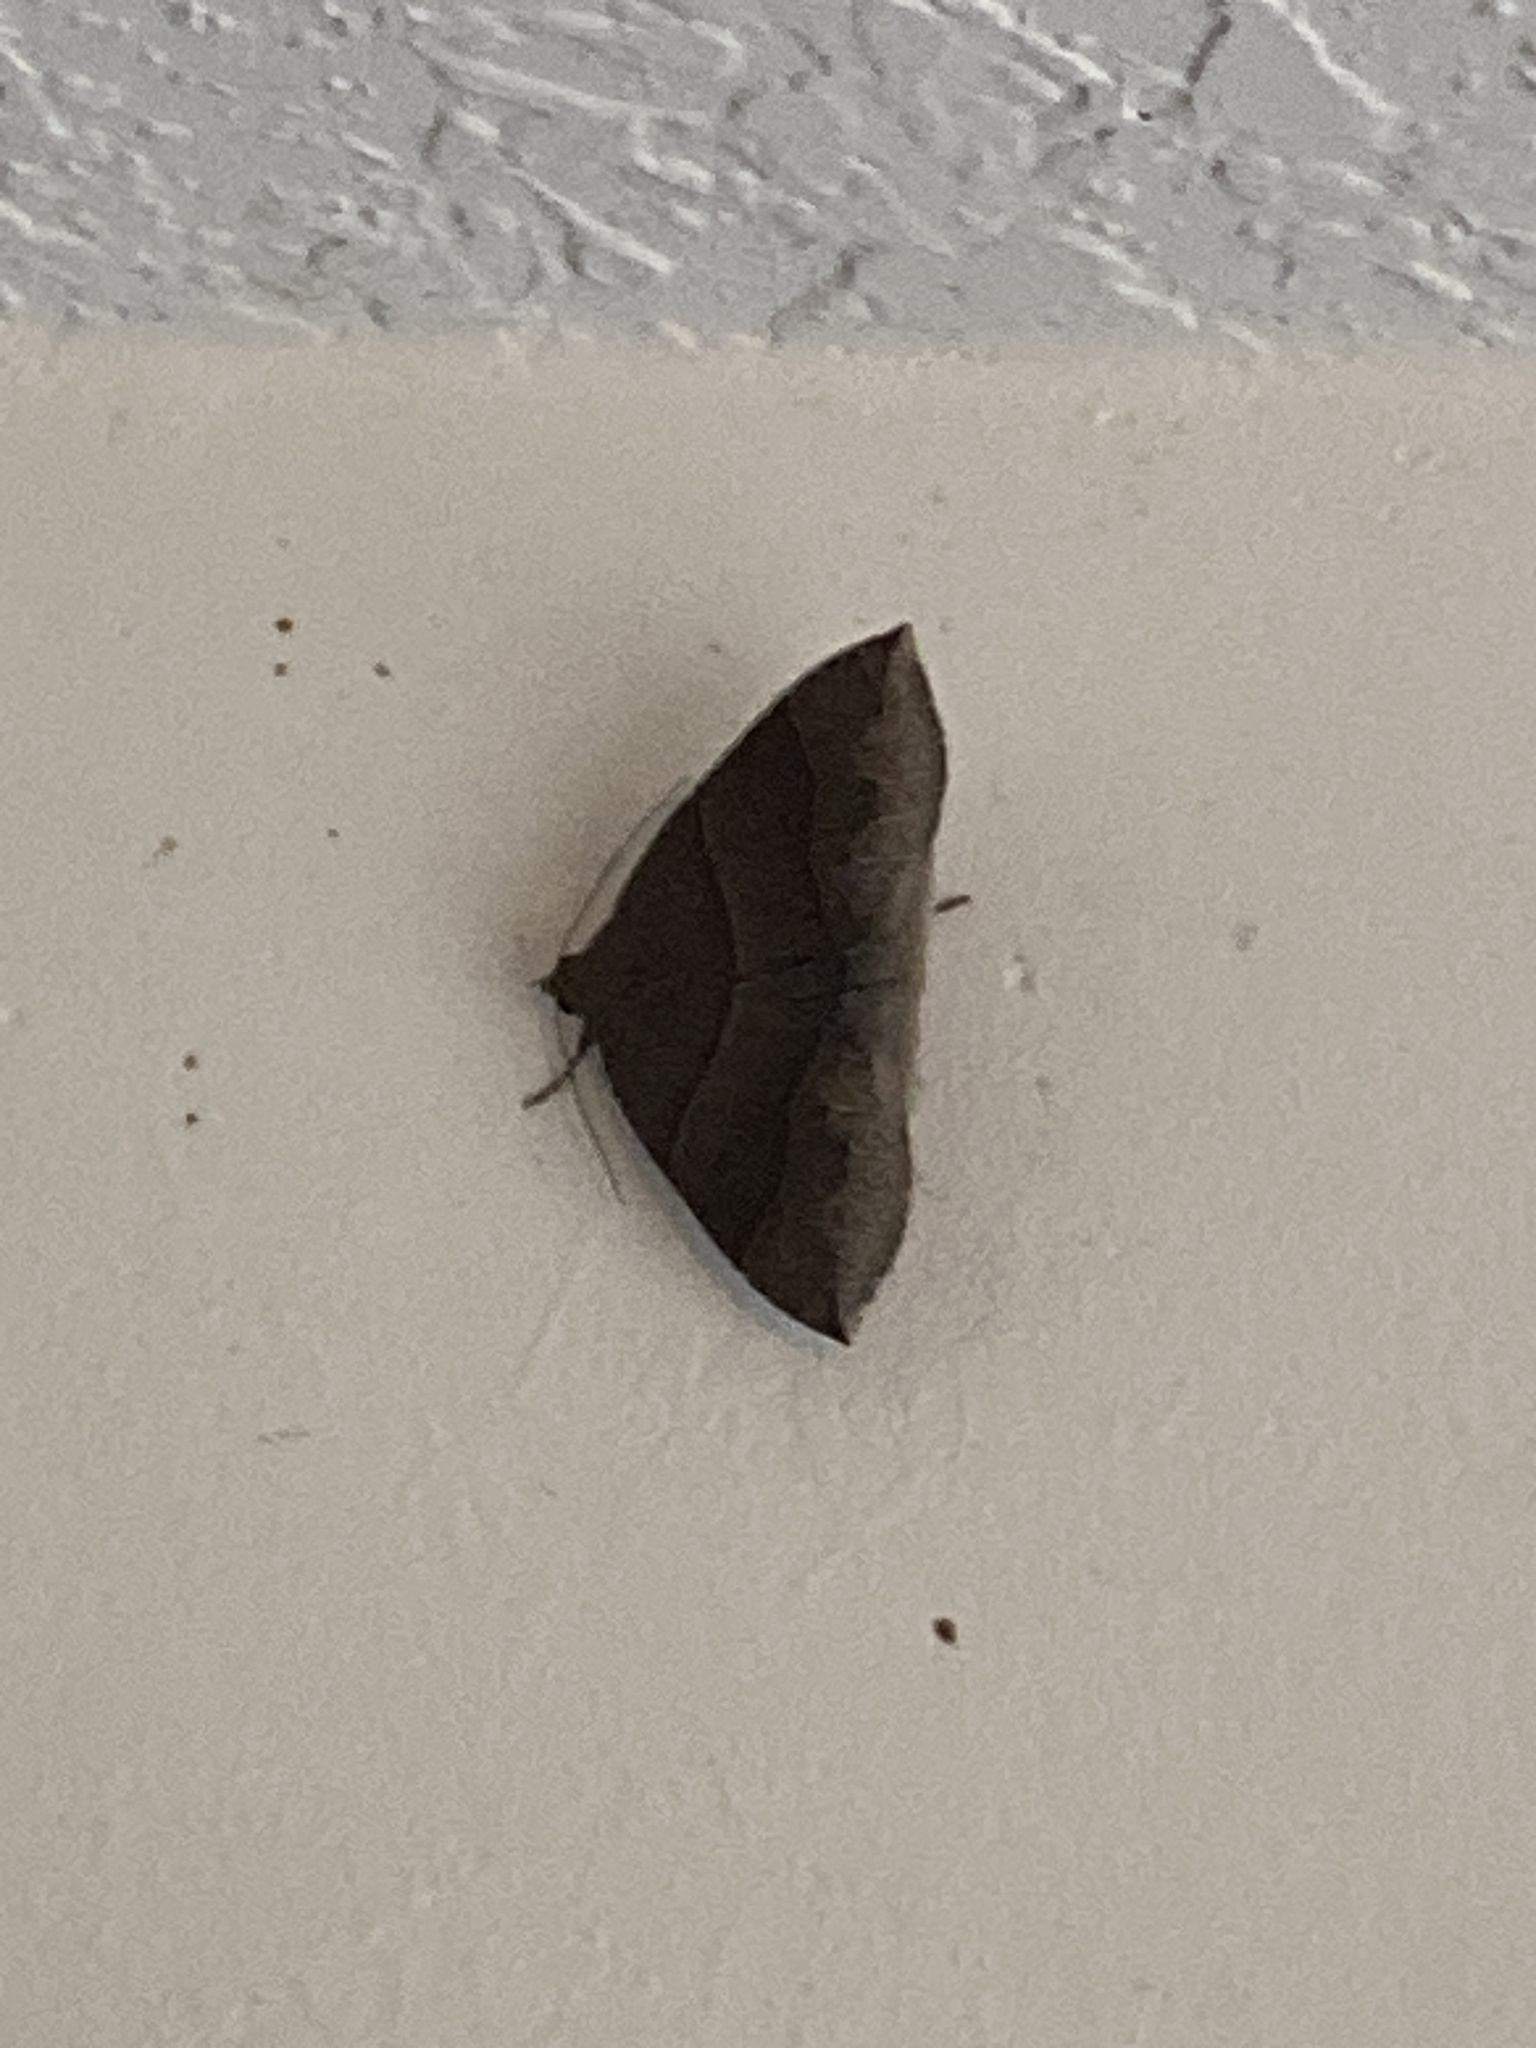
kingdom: Animalia
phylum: Arthropoda
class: Insecta
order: Lepidoptera
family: Erebidae
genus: Parallelia
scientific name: Parallelia bistriaris
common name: Maple looper moth
